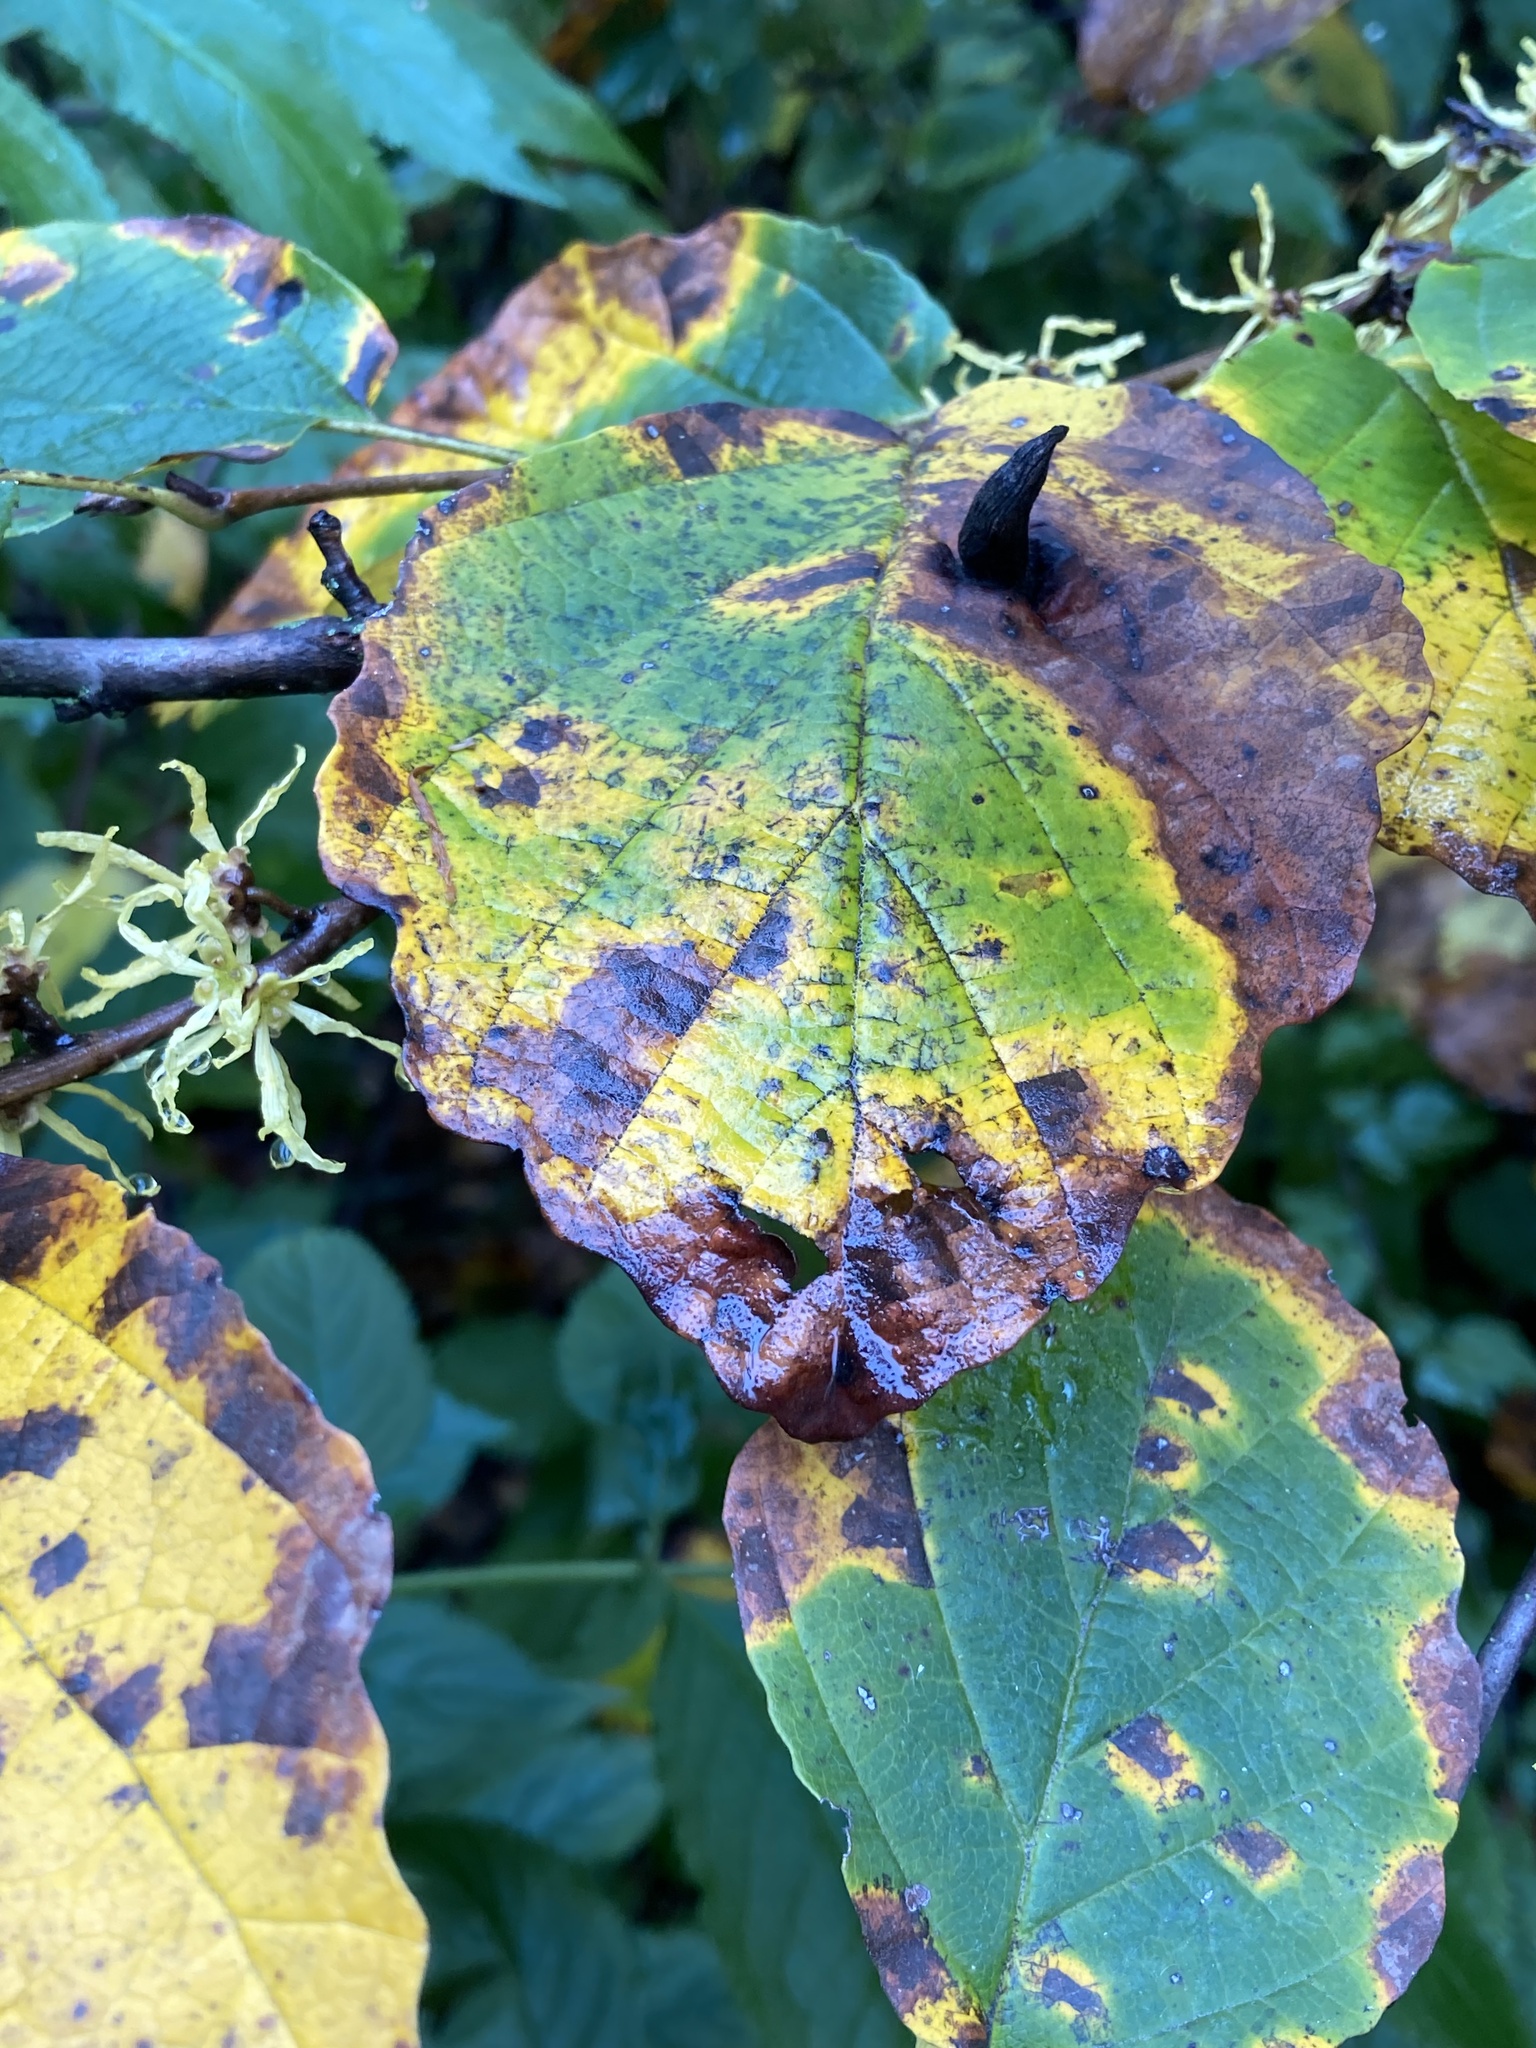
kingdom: Animalia
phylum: Arthropoda
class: Insecta
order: Hemiptera
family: Aphididae
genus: Hormaphis
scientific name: Hormaphis hamamelidis
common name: Witch-hazel cone gall aphid
